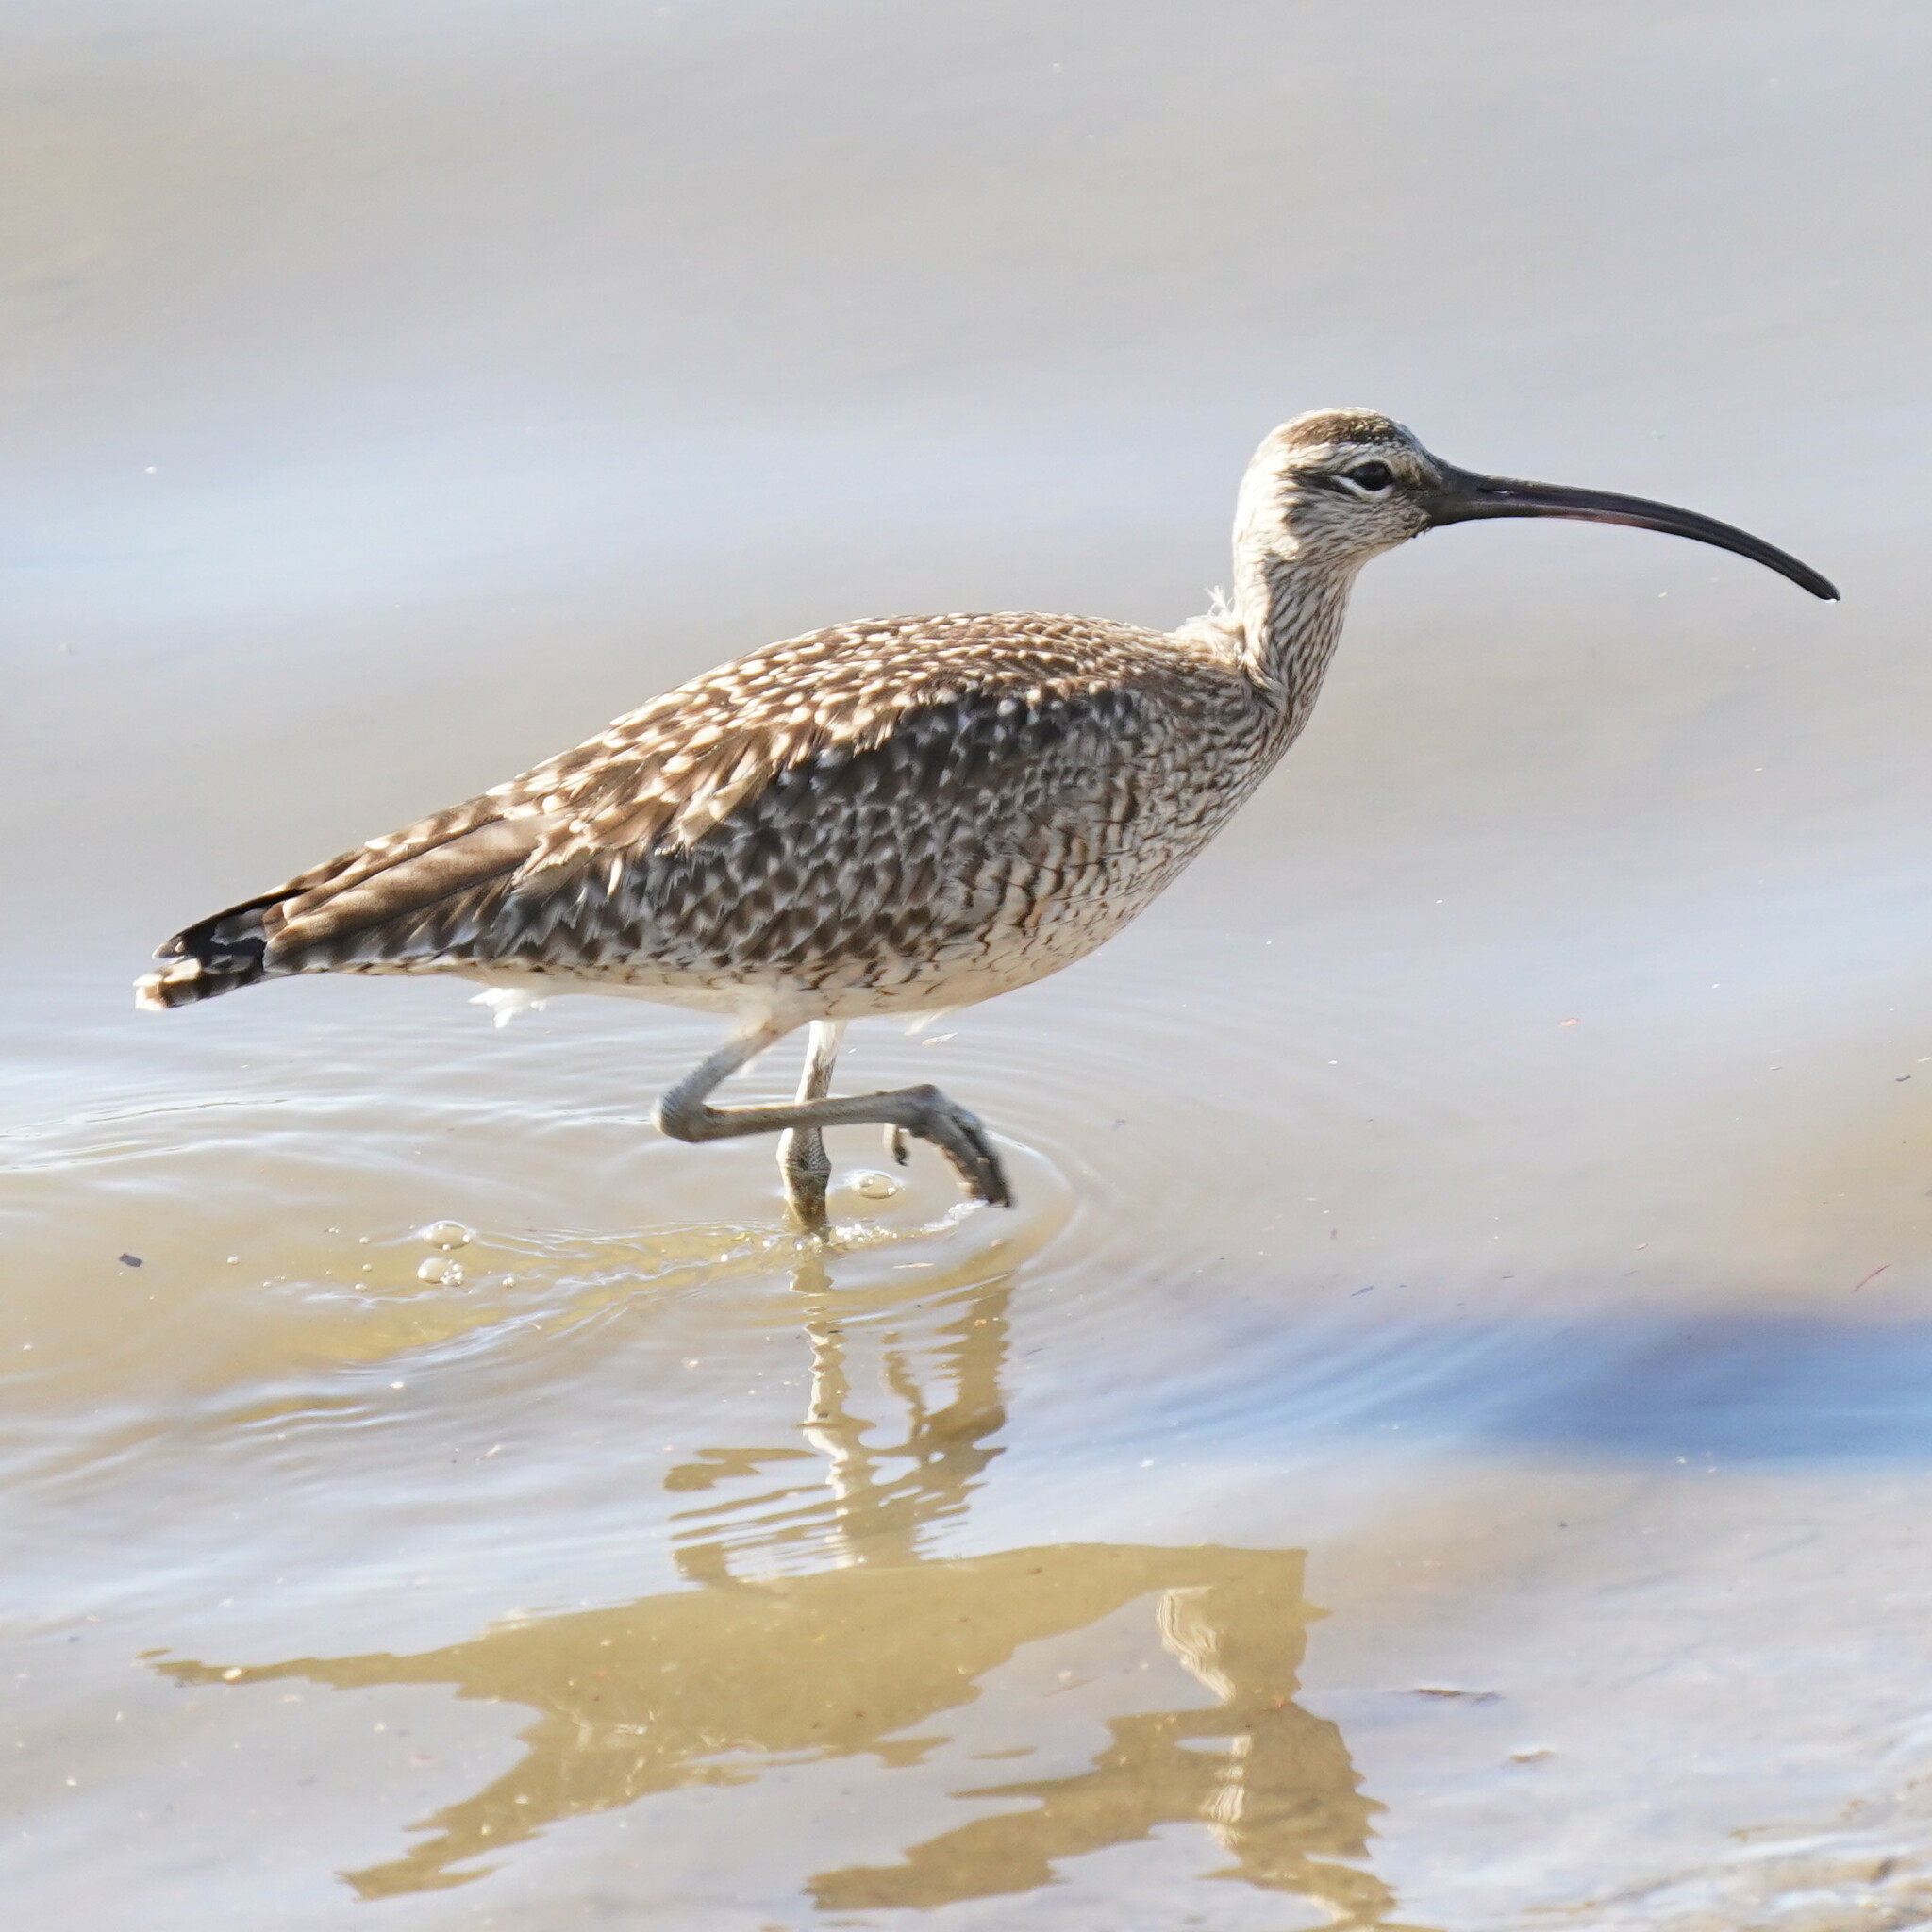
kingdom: Animalia
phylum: Chordata
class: Aves
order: Charadriiformes
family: Scolopacidae
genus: Numenius
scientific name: Numenius phaeopus
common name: Whimbrel
